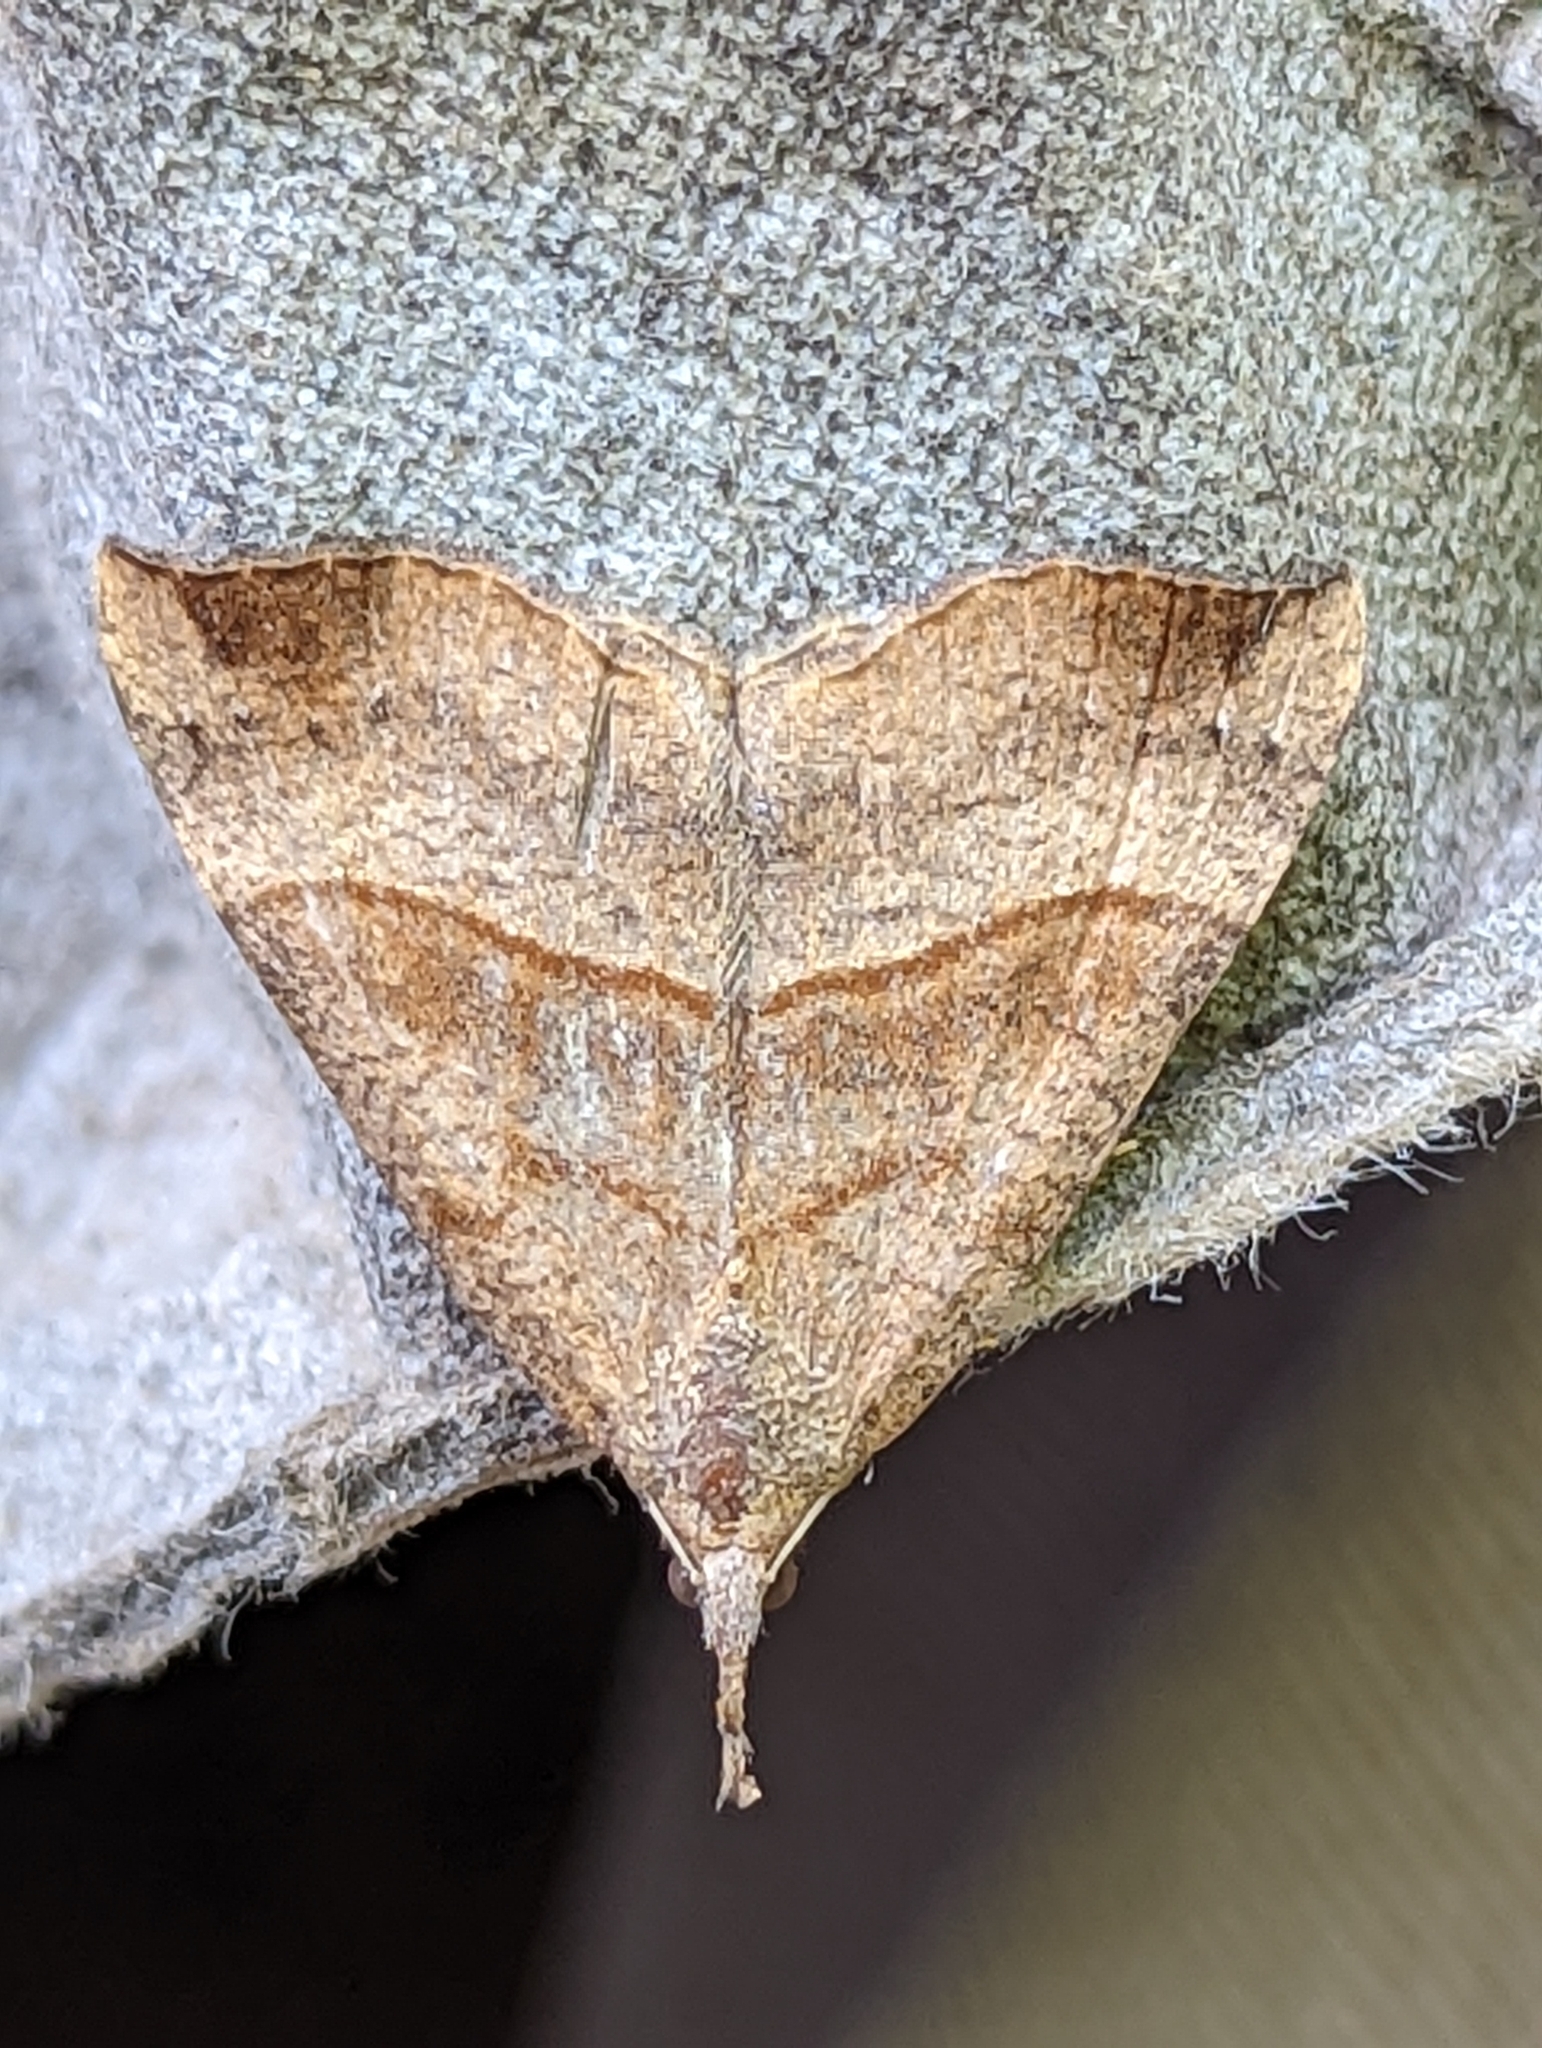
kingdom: Animalia
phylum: Arthropoda
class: Insecta
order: Lepidoptera
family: Erebidae
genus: Hypena
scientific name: Hypena proboscidalis
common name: Snout
